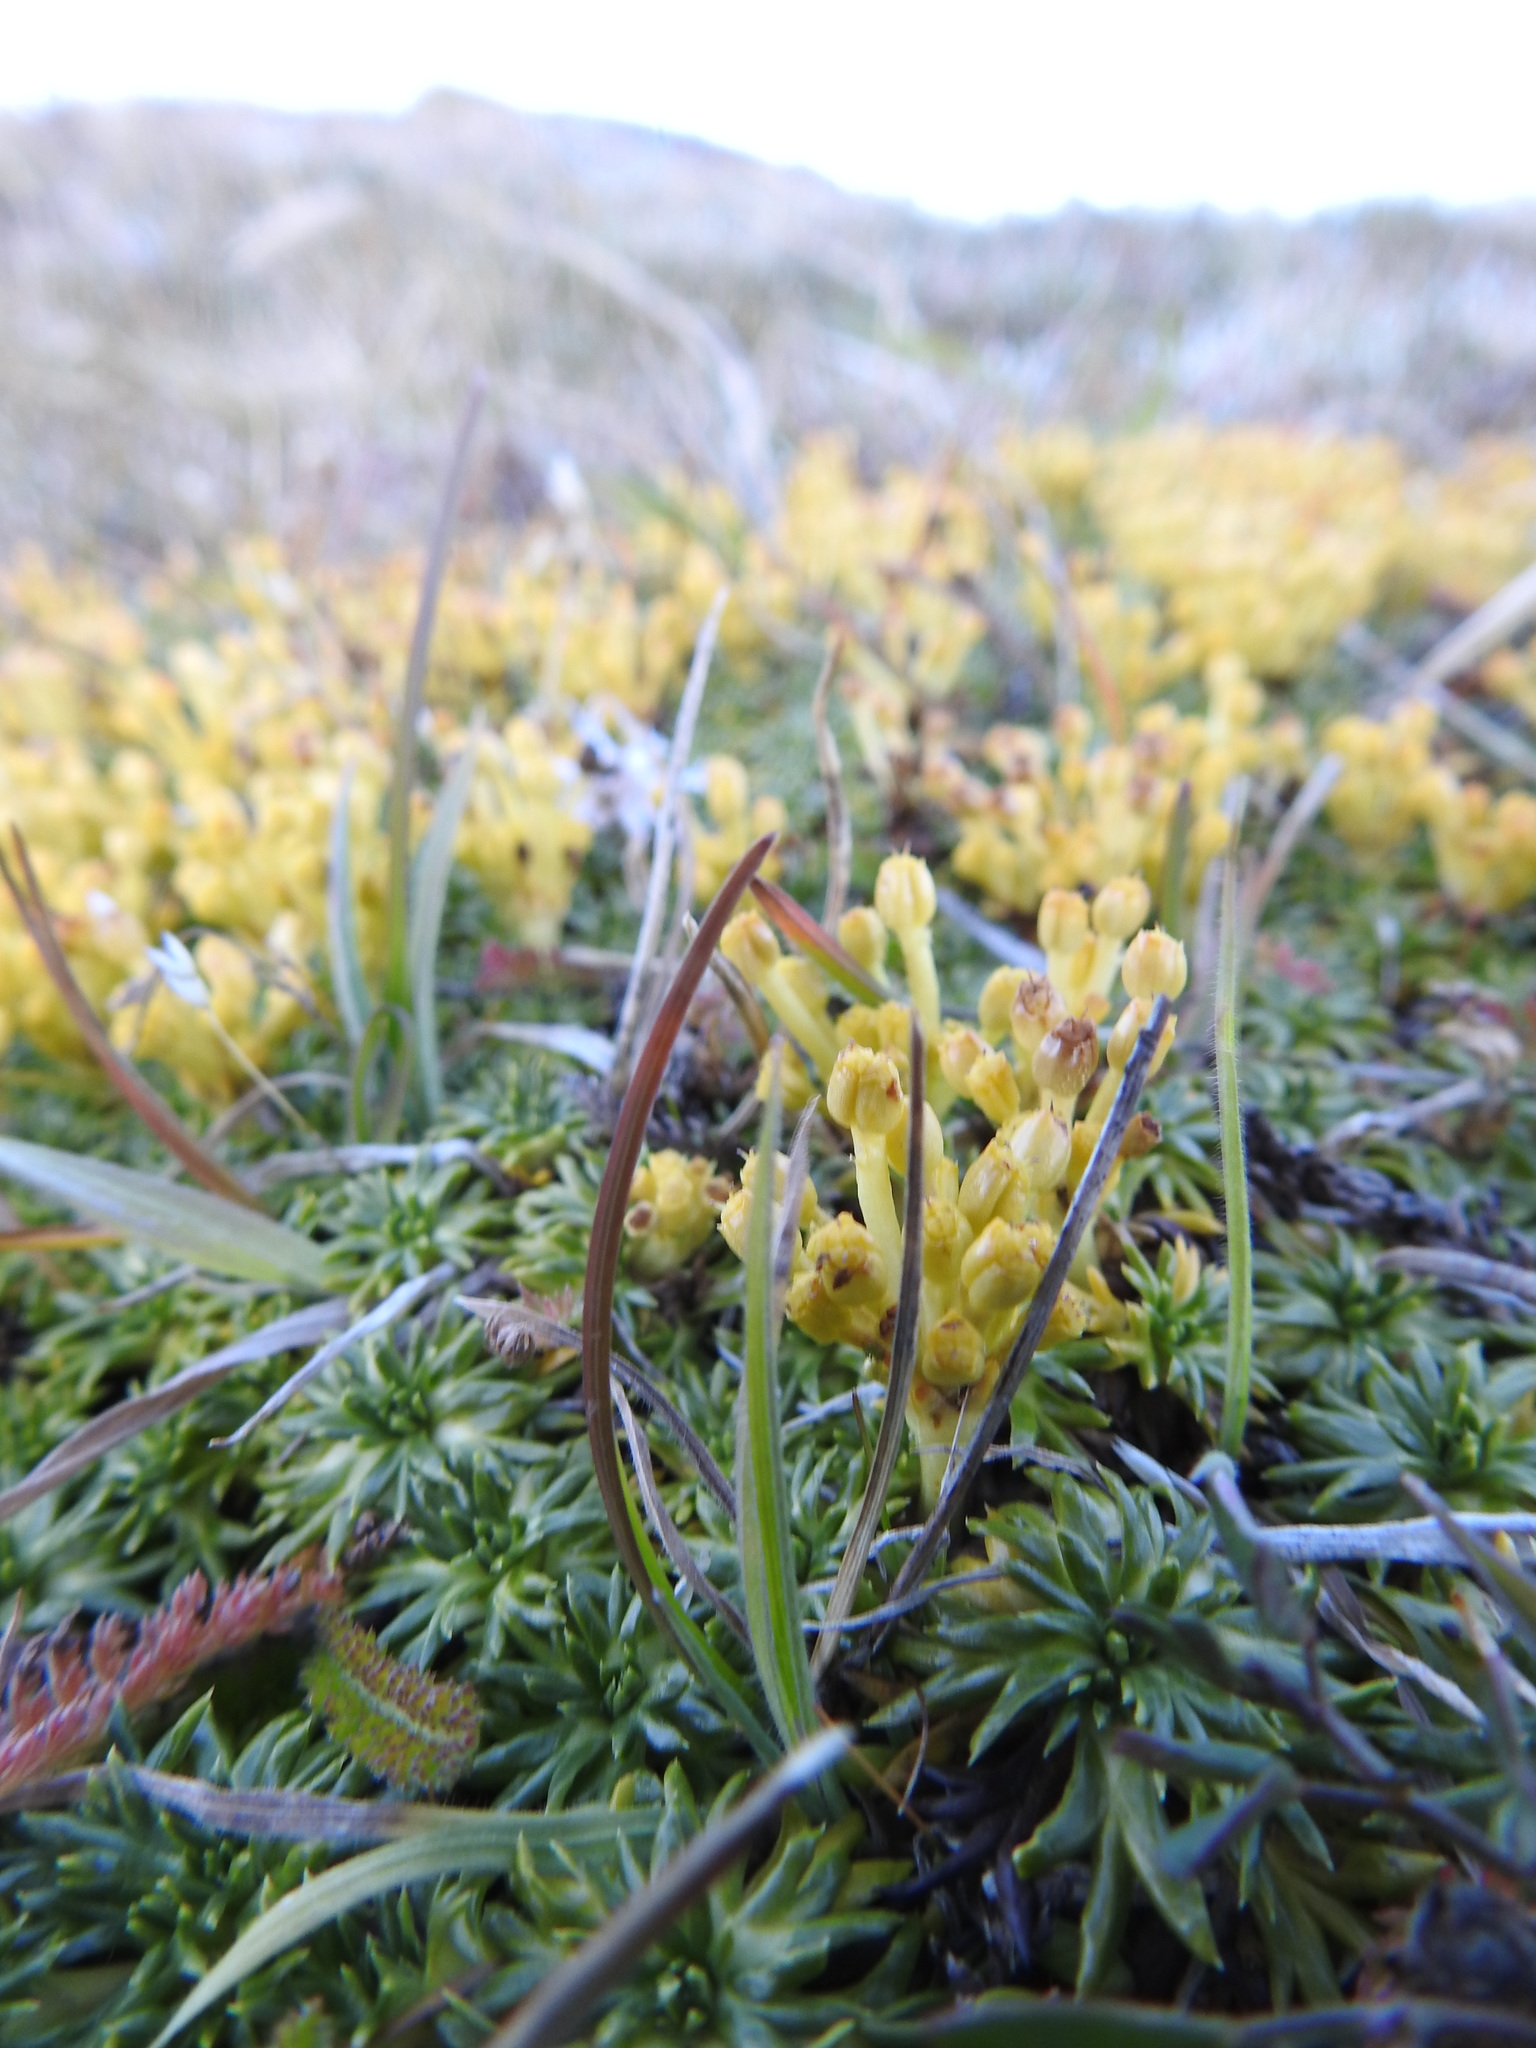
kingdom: Plantae
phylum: Tracheophyta
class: Magnoliopsida
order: Apiales
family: Apiaceae
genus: Azorella
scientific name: Azorella trifurcata
